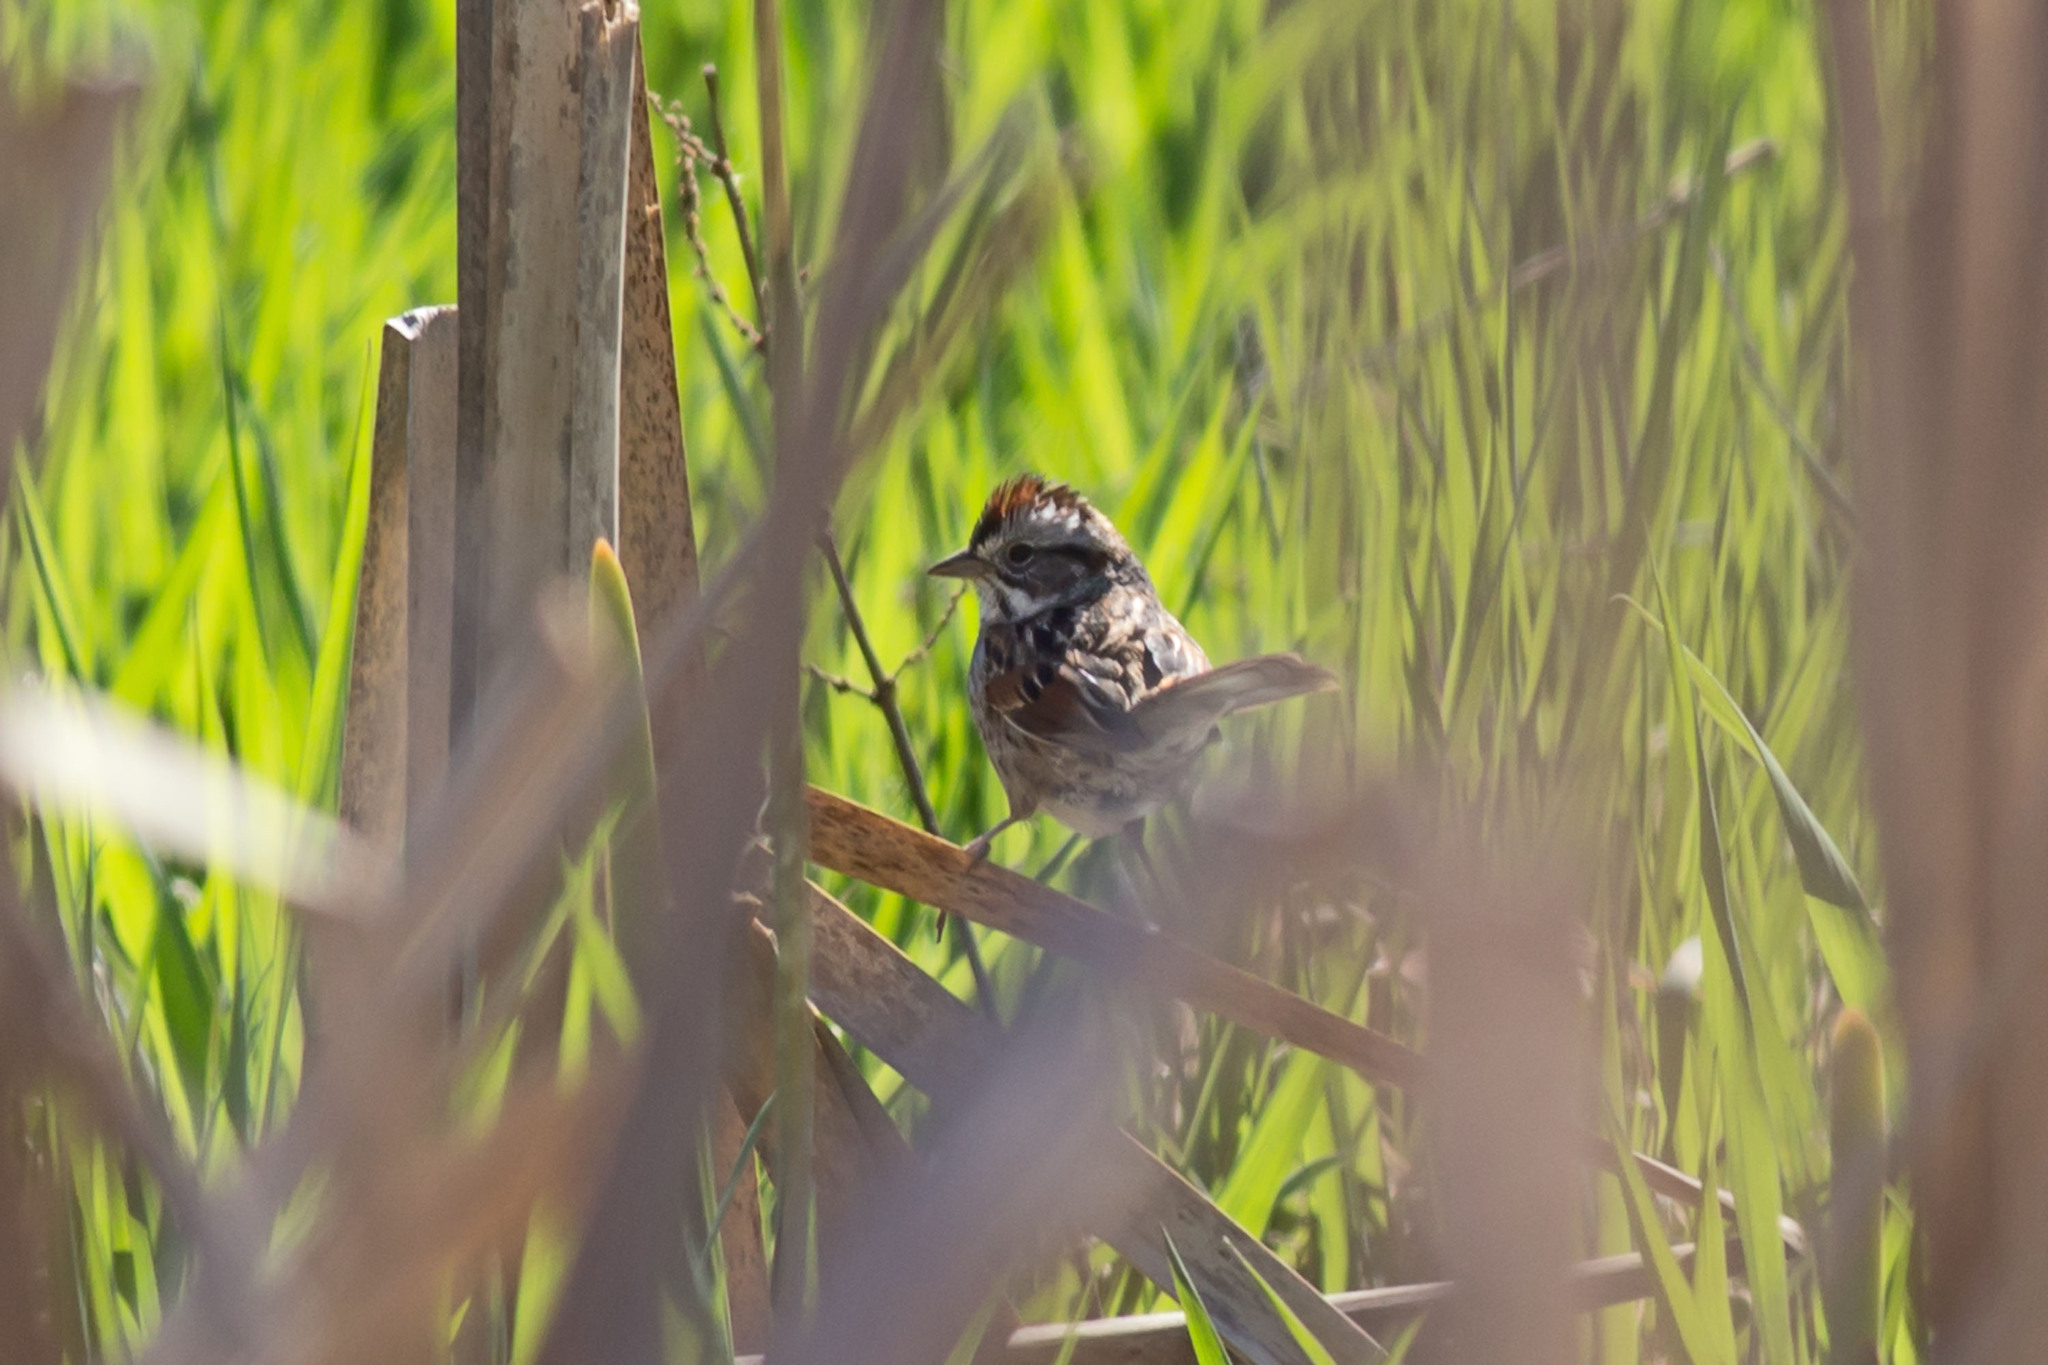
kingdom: Animalia
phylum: Chordata
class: Aves
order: Passeriformes
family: Passerellidae
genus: Melospiza
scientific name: Melospiza georgiana
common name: Swamp sparrow
